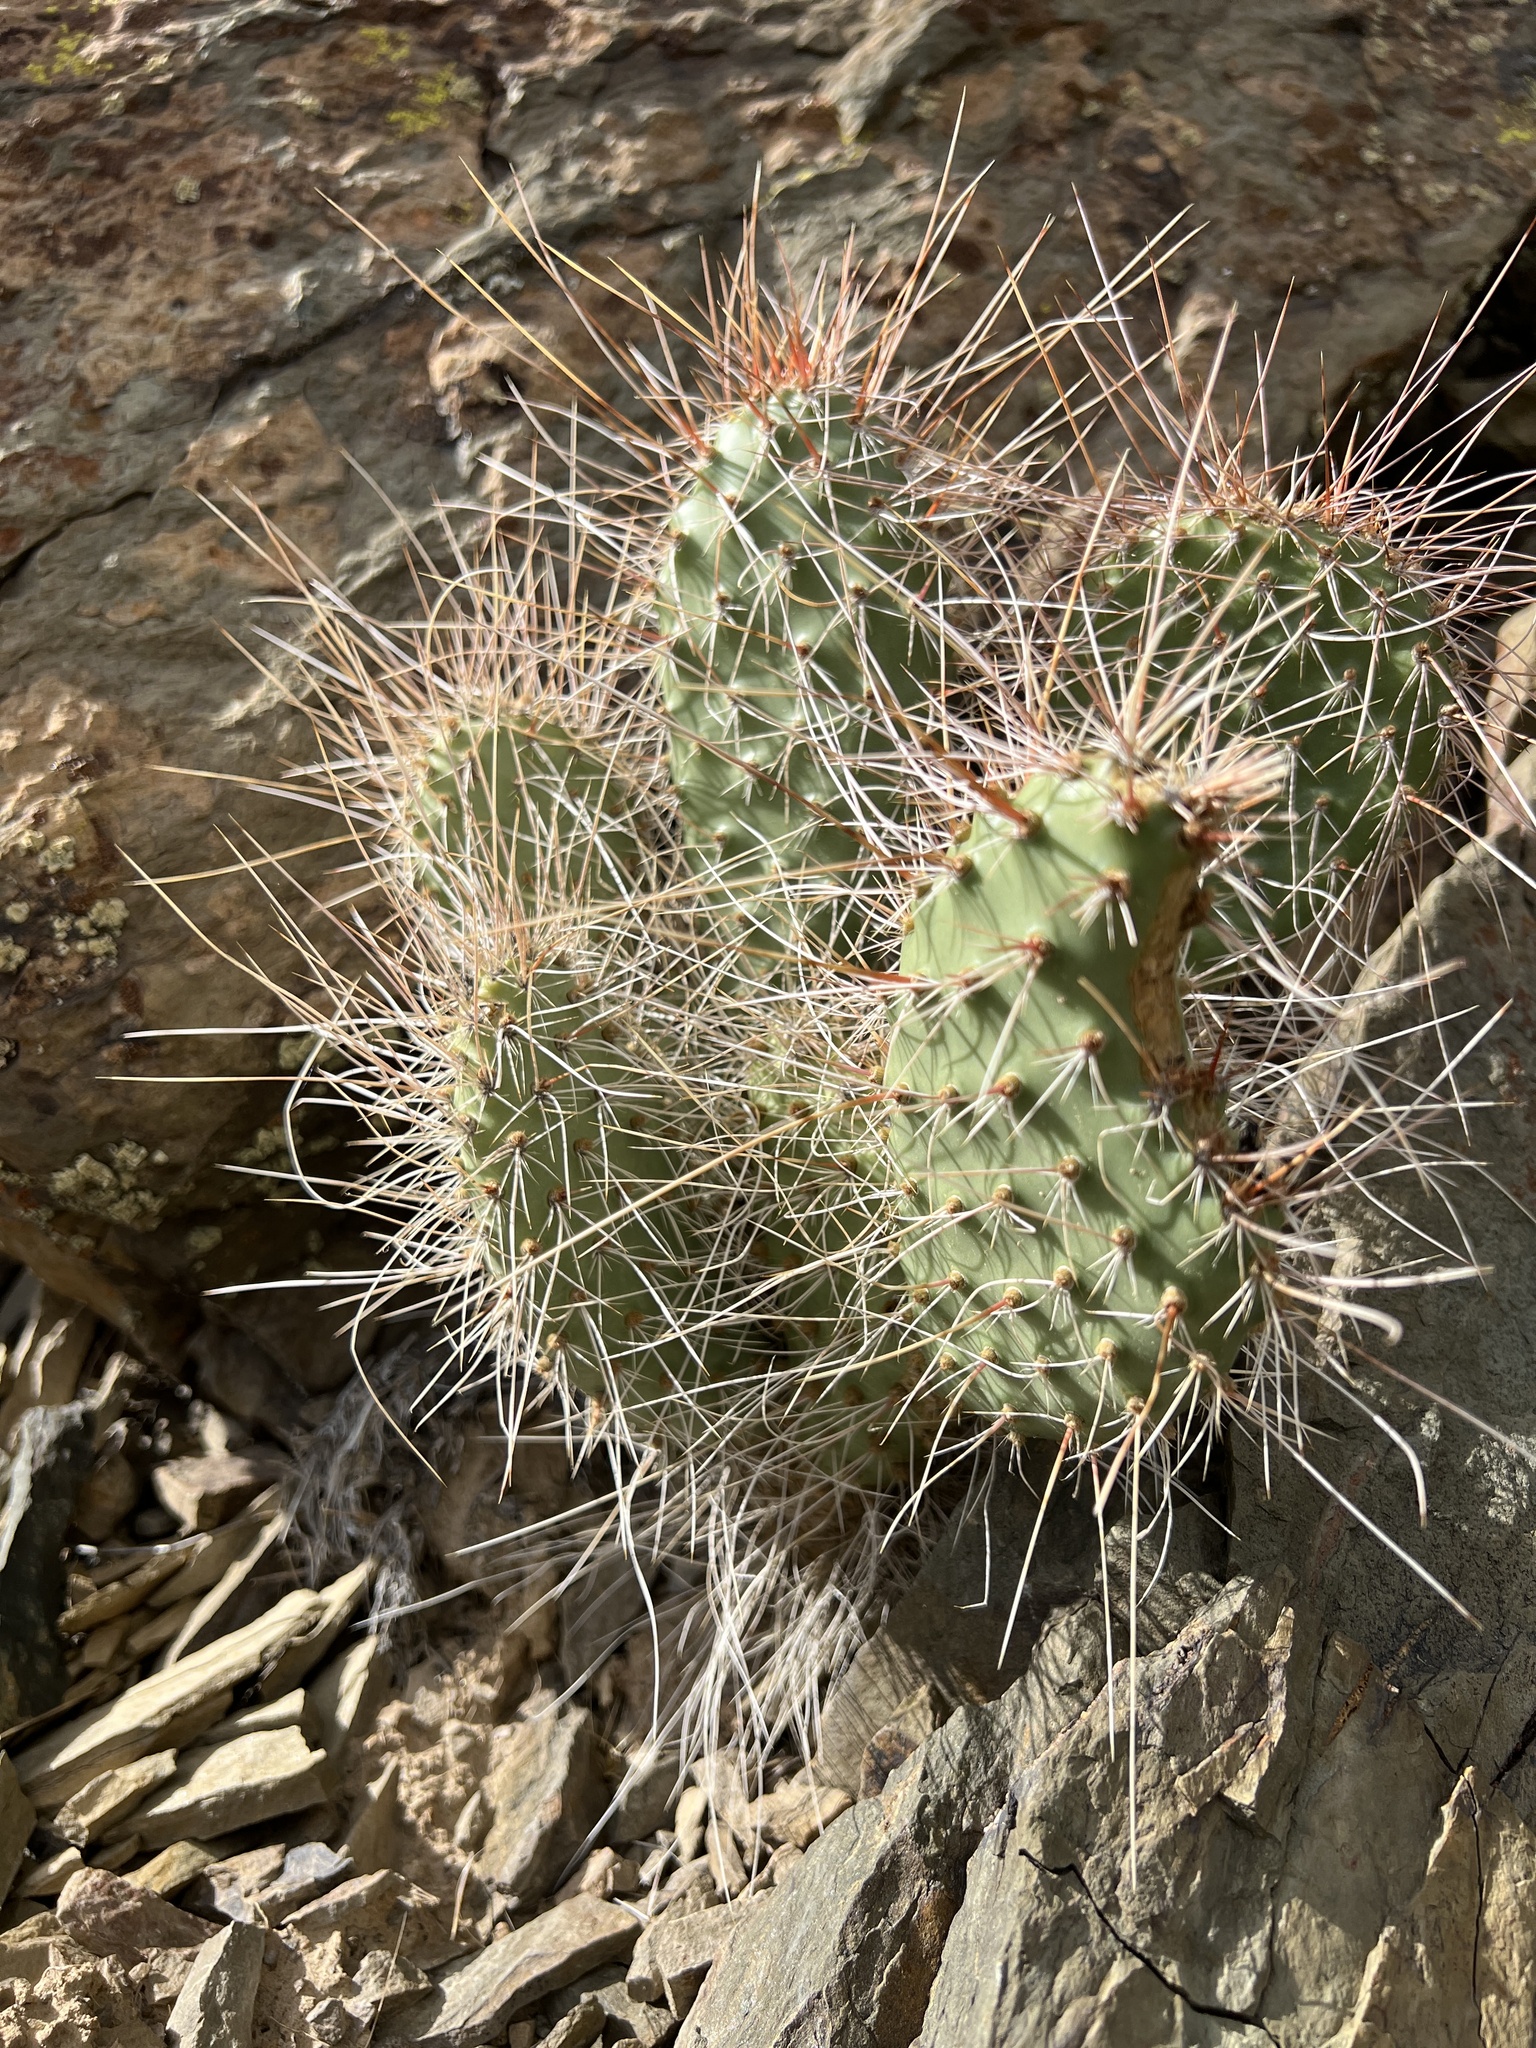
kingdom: Plantae
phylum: Tracheophyta
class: Magnoliopsida
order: Caryophyllales
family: Cactaceae
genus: Opuntia
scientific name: Opuntia polyacantha
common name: Plains prickly-pear
